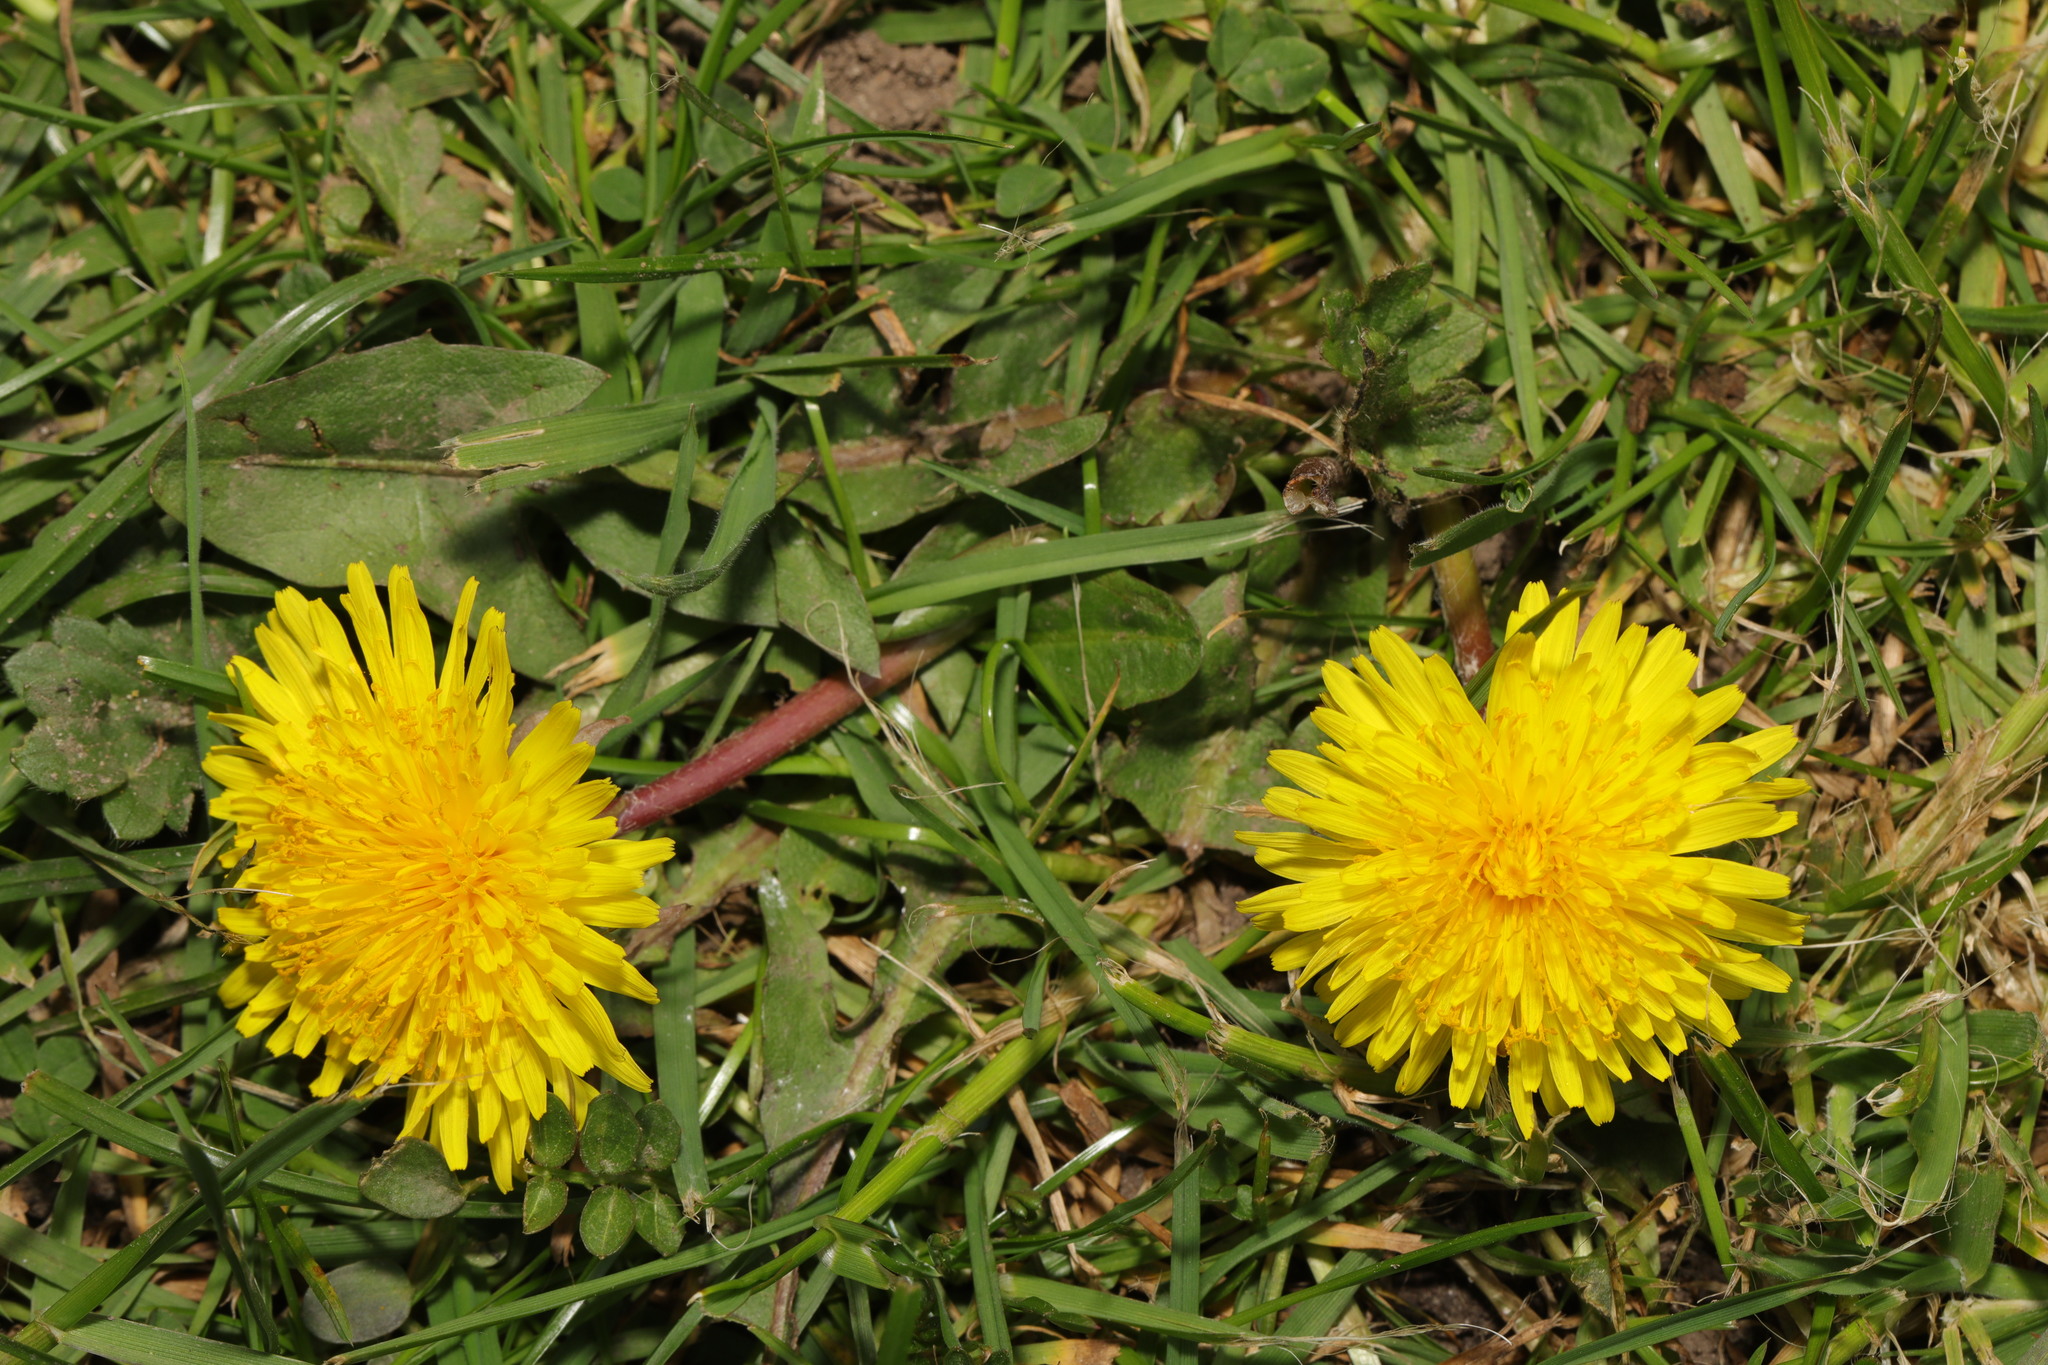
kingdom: Plantae
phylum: Tracheophyta
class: Magnoliopsida
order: Asterales
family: Asteraceae
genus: Taraxacum
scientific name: Taraxacum officinale
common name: Common dandelion
